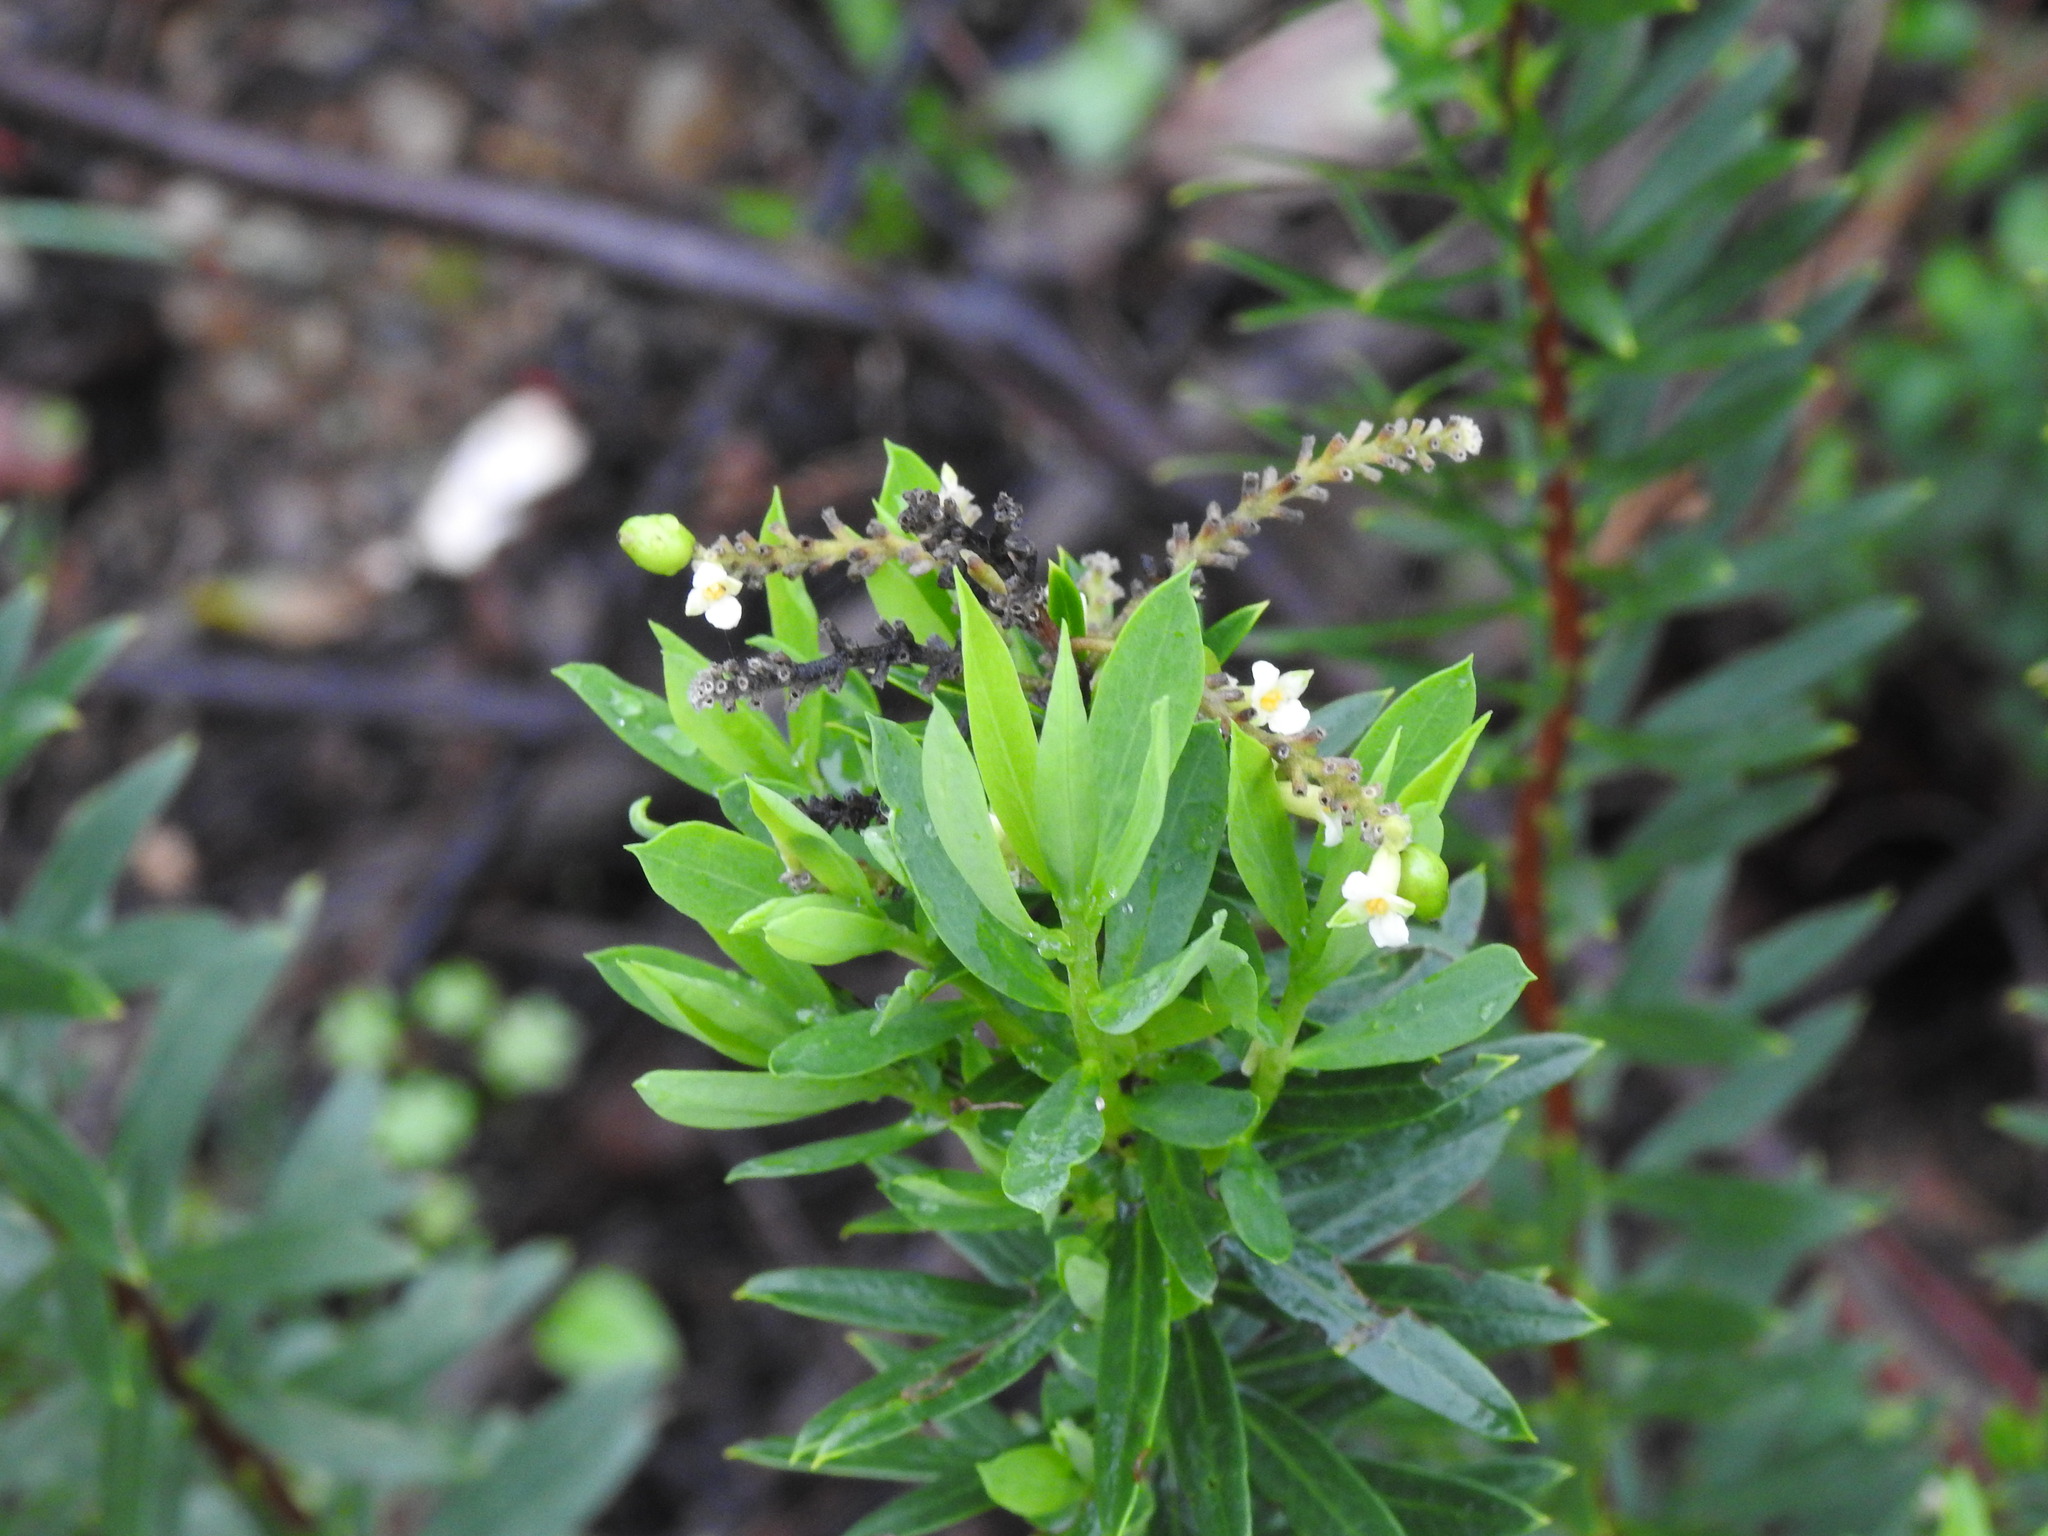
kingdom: Plantae
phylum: Tracheophyta
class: Magnoliopsida
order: Malvales
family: Thymelaeaceae
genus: Daphne
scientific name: Daphne gnidium
